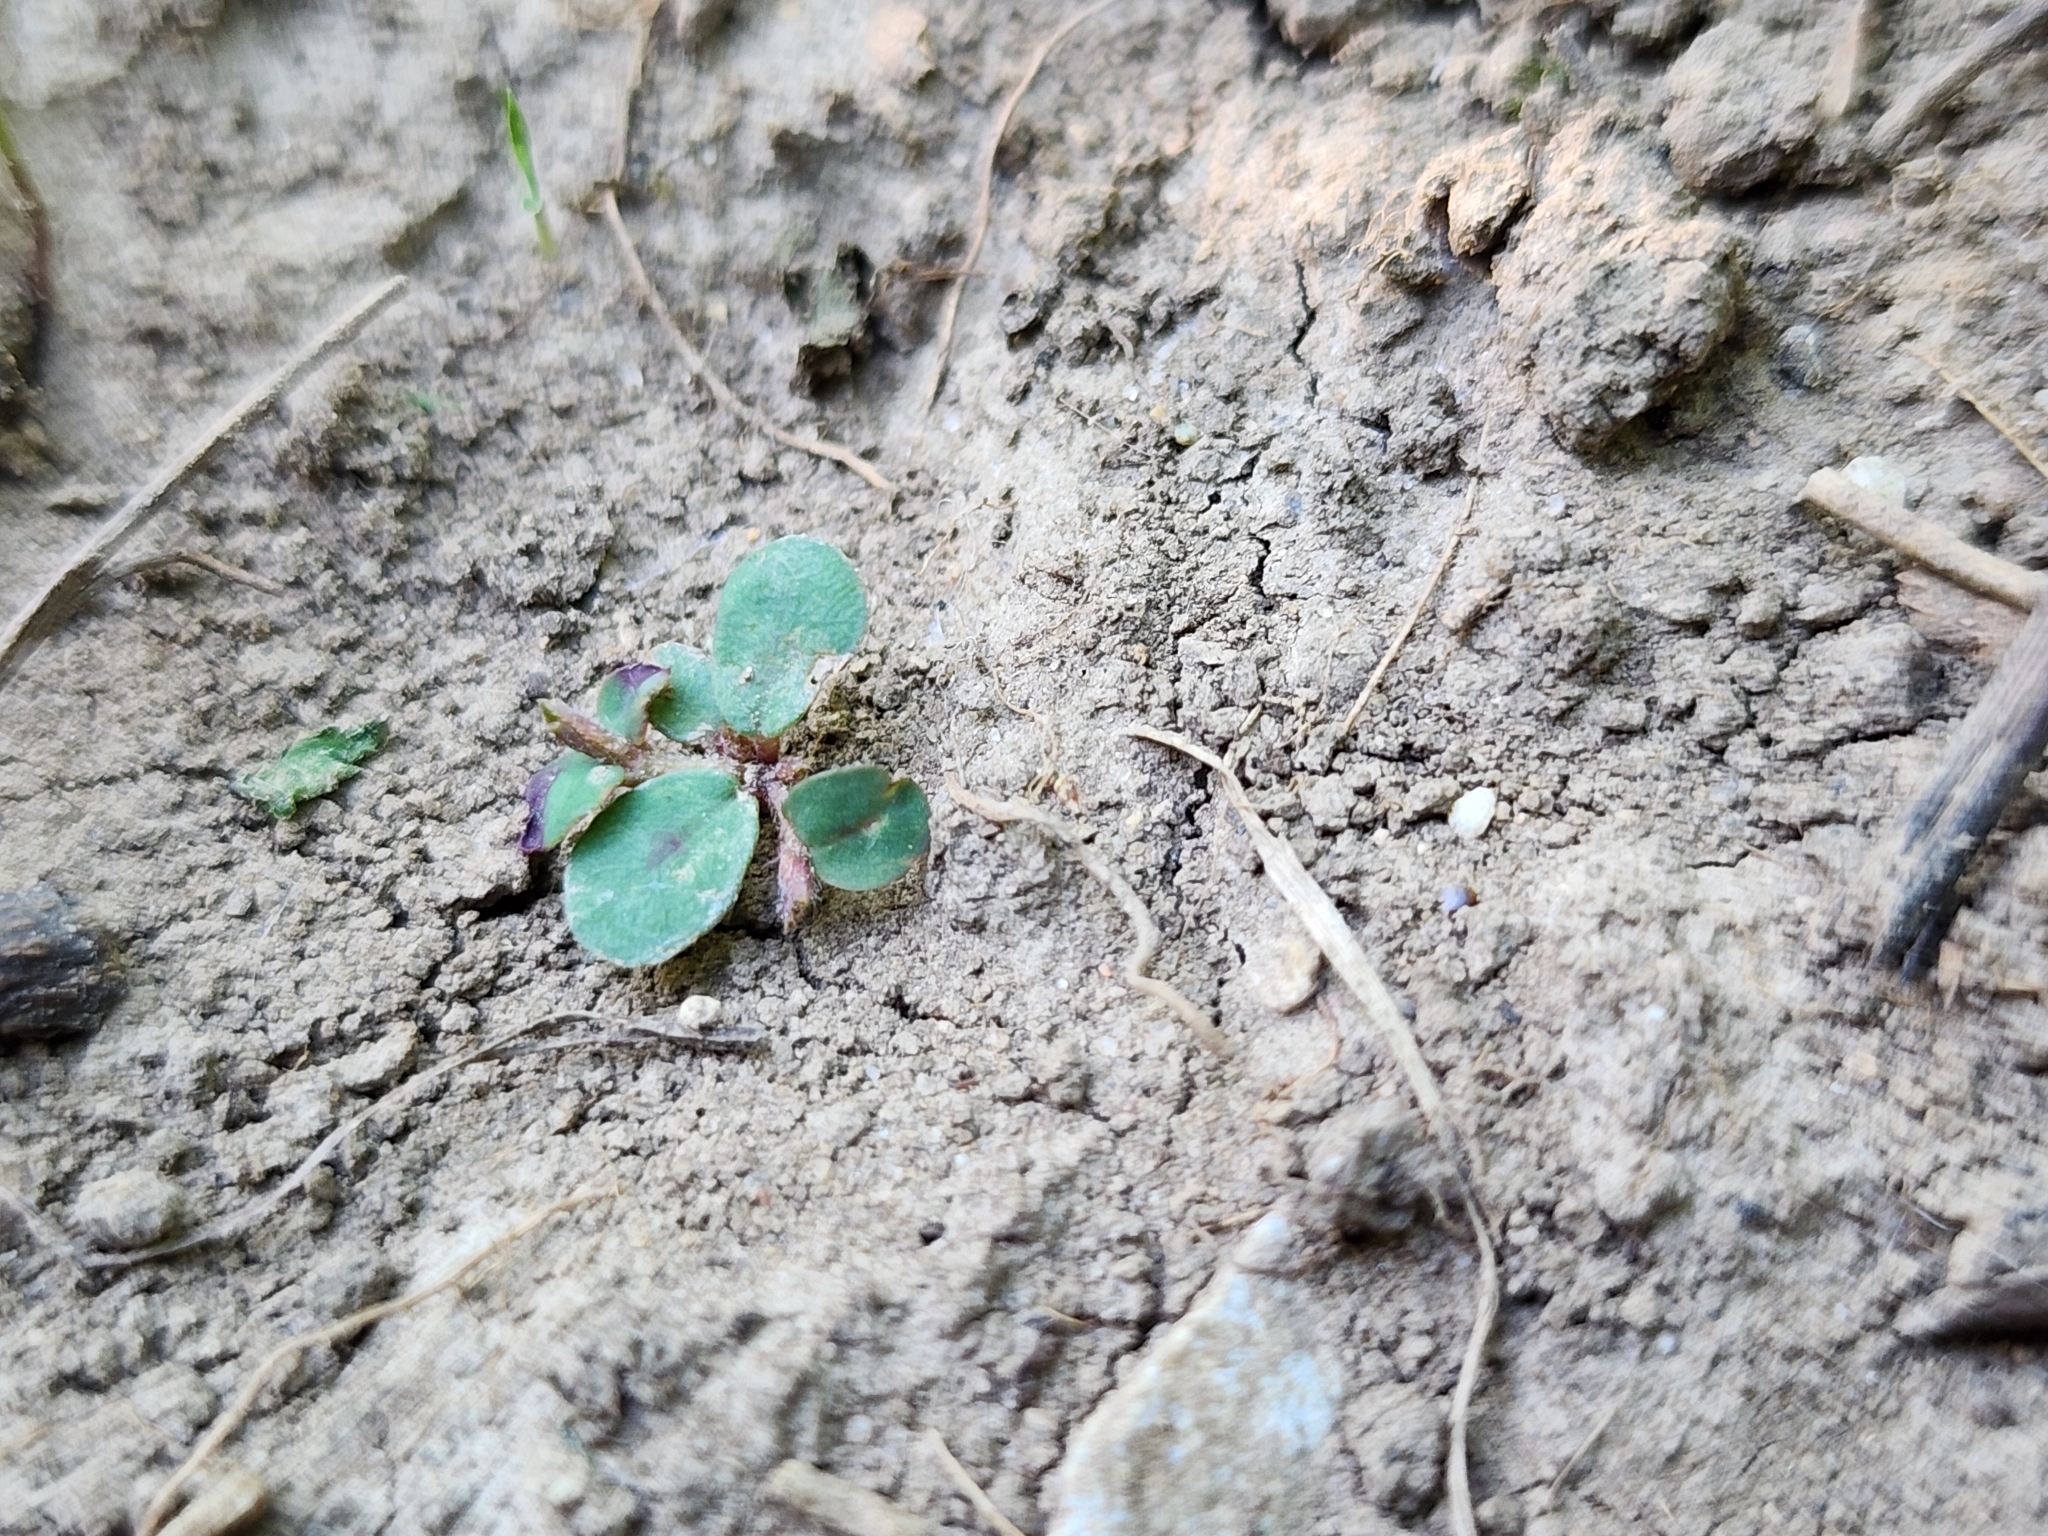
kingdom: Plantae
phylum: Tracheophyta
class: Magnoliopsida
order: Malpighiales
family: Euphorbiaceae
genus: Euphorbia
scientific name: Euphorbia maculata
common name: Spotted spurge
